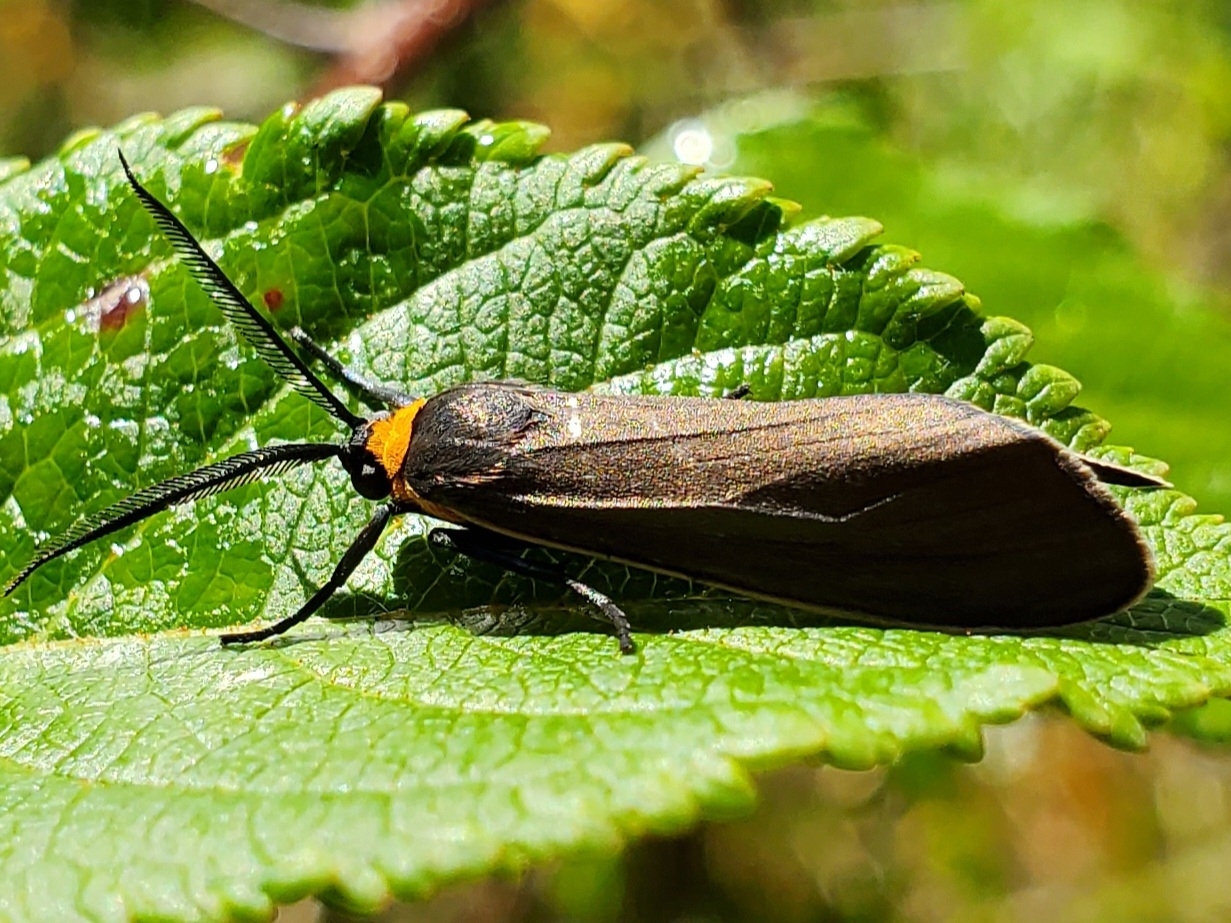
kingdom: Animalia
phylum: Arthropoda
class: Insecta
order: Lepidoptera
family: Erebidae
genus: Cisseps
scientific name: Cisseps fulvicollis
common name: Yellow-collared scape moth
